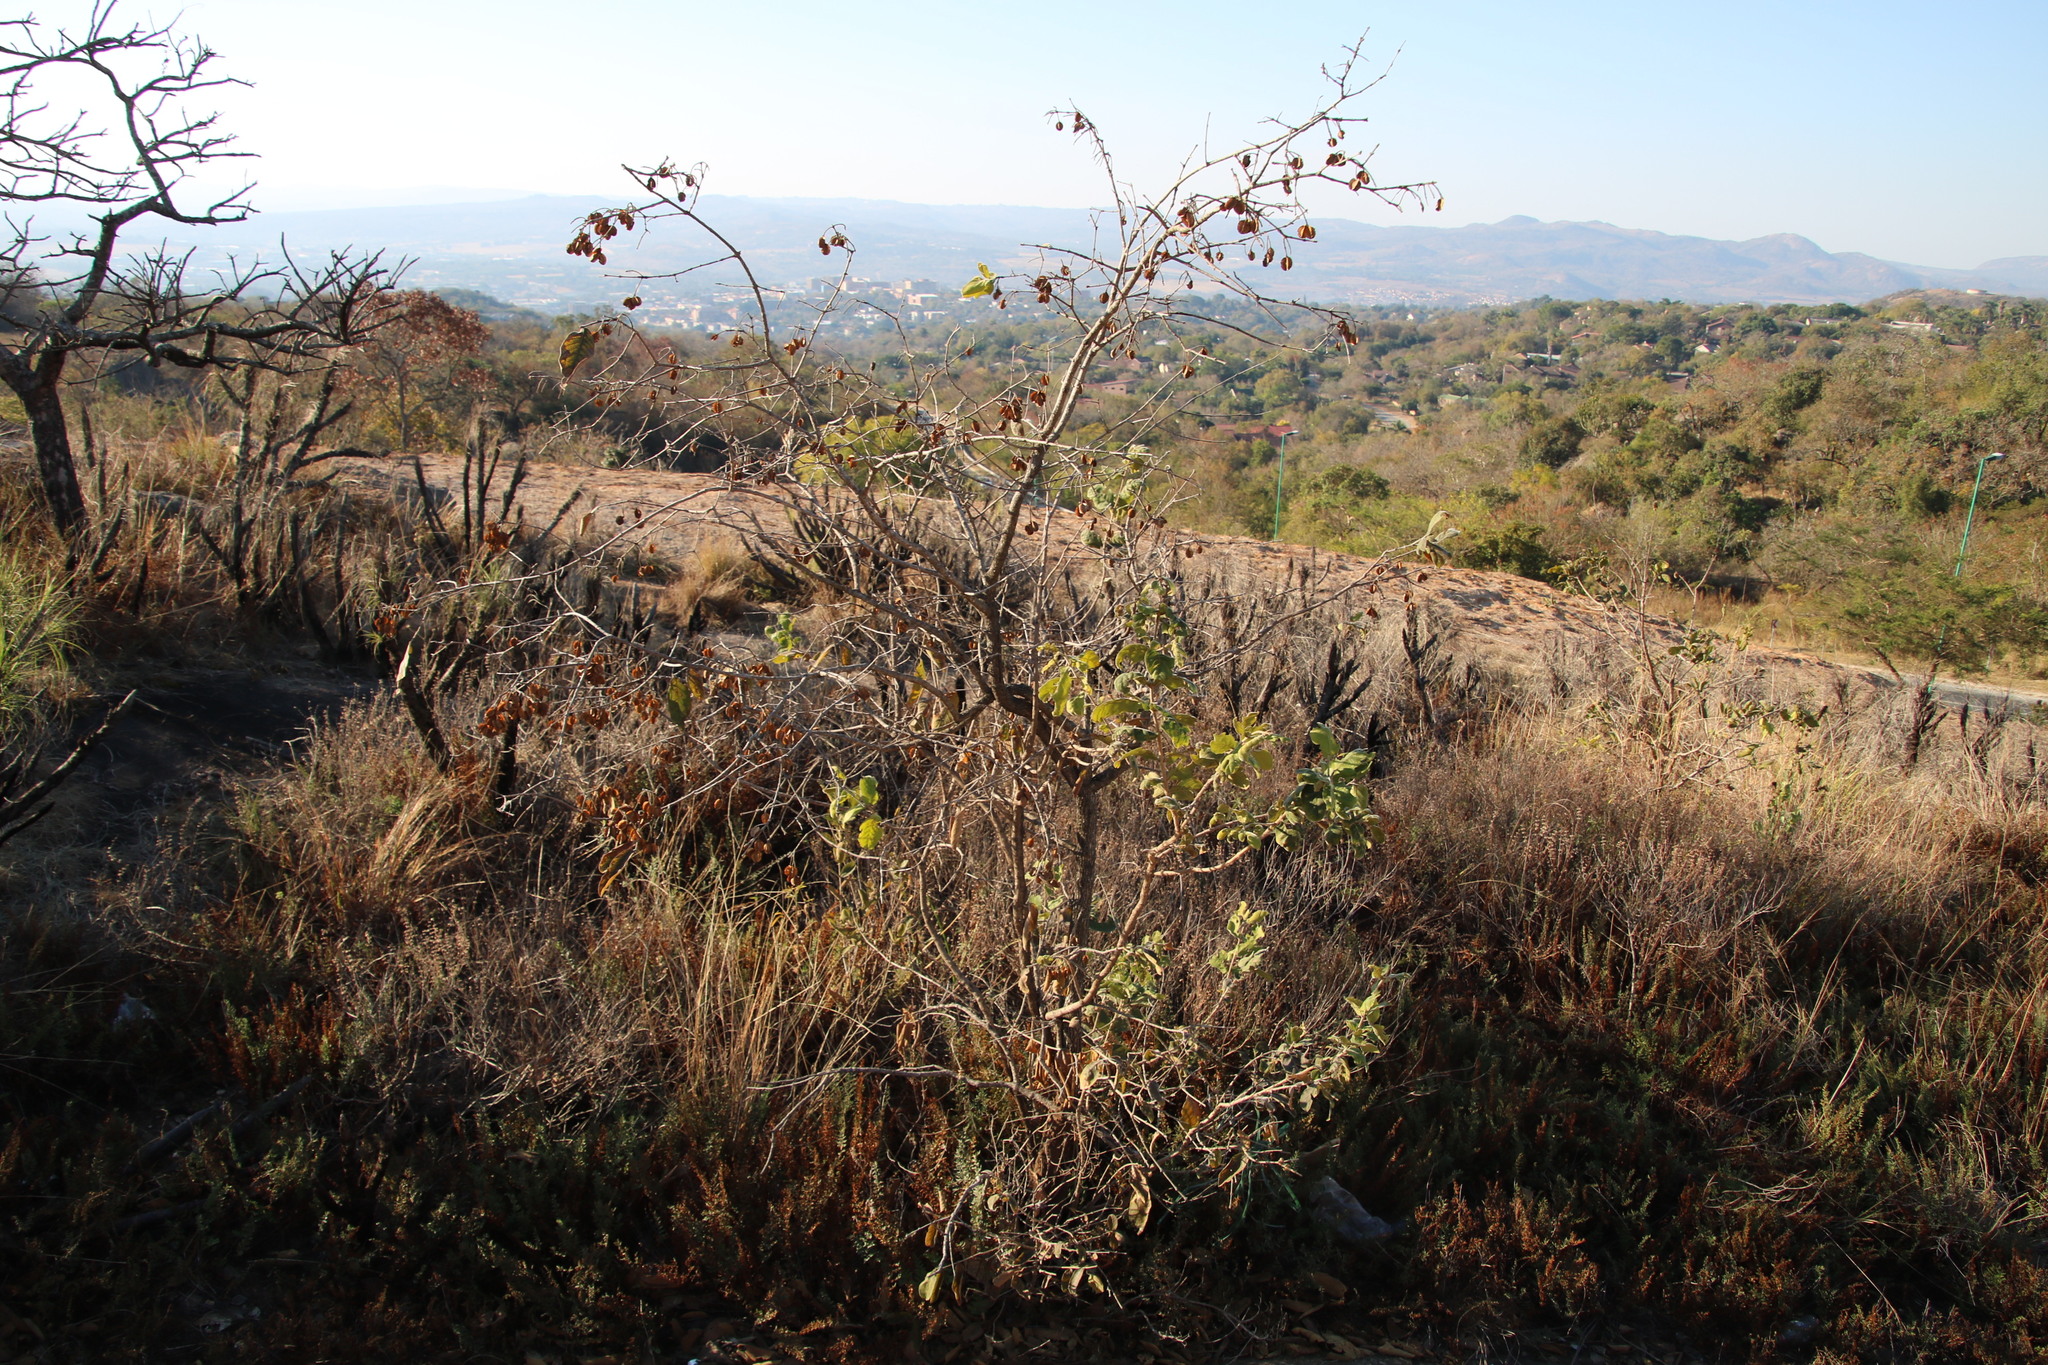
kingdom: Plantae
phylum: Tracheophyta
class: Magnoliopsida
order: Myrtales
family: Combretaceae
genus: Combretum
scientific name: Combretum molle
